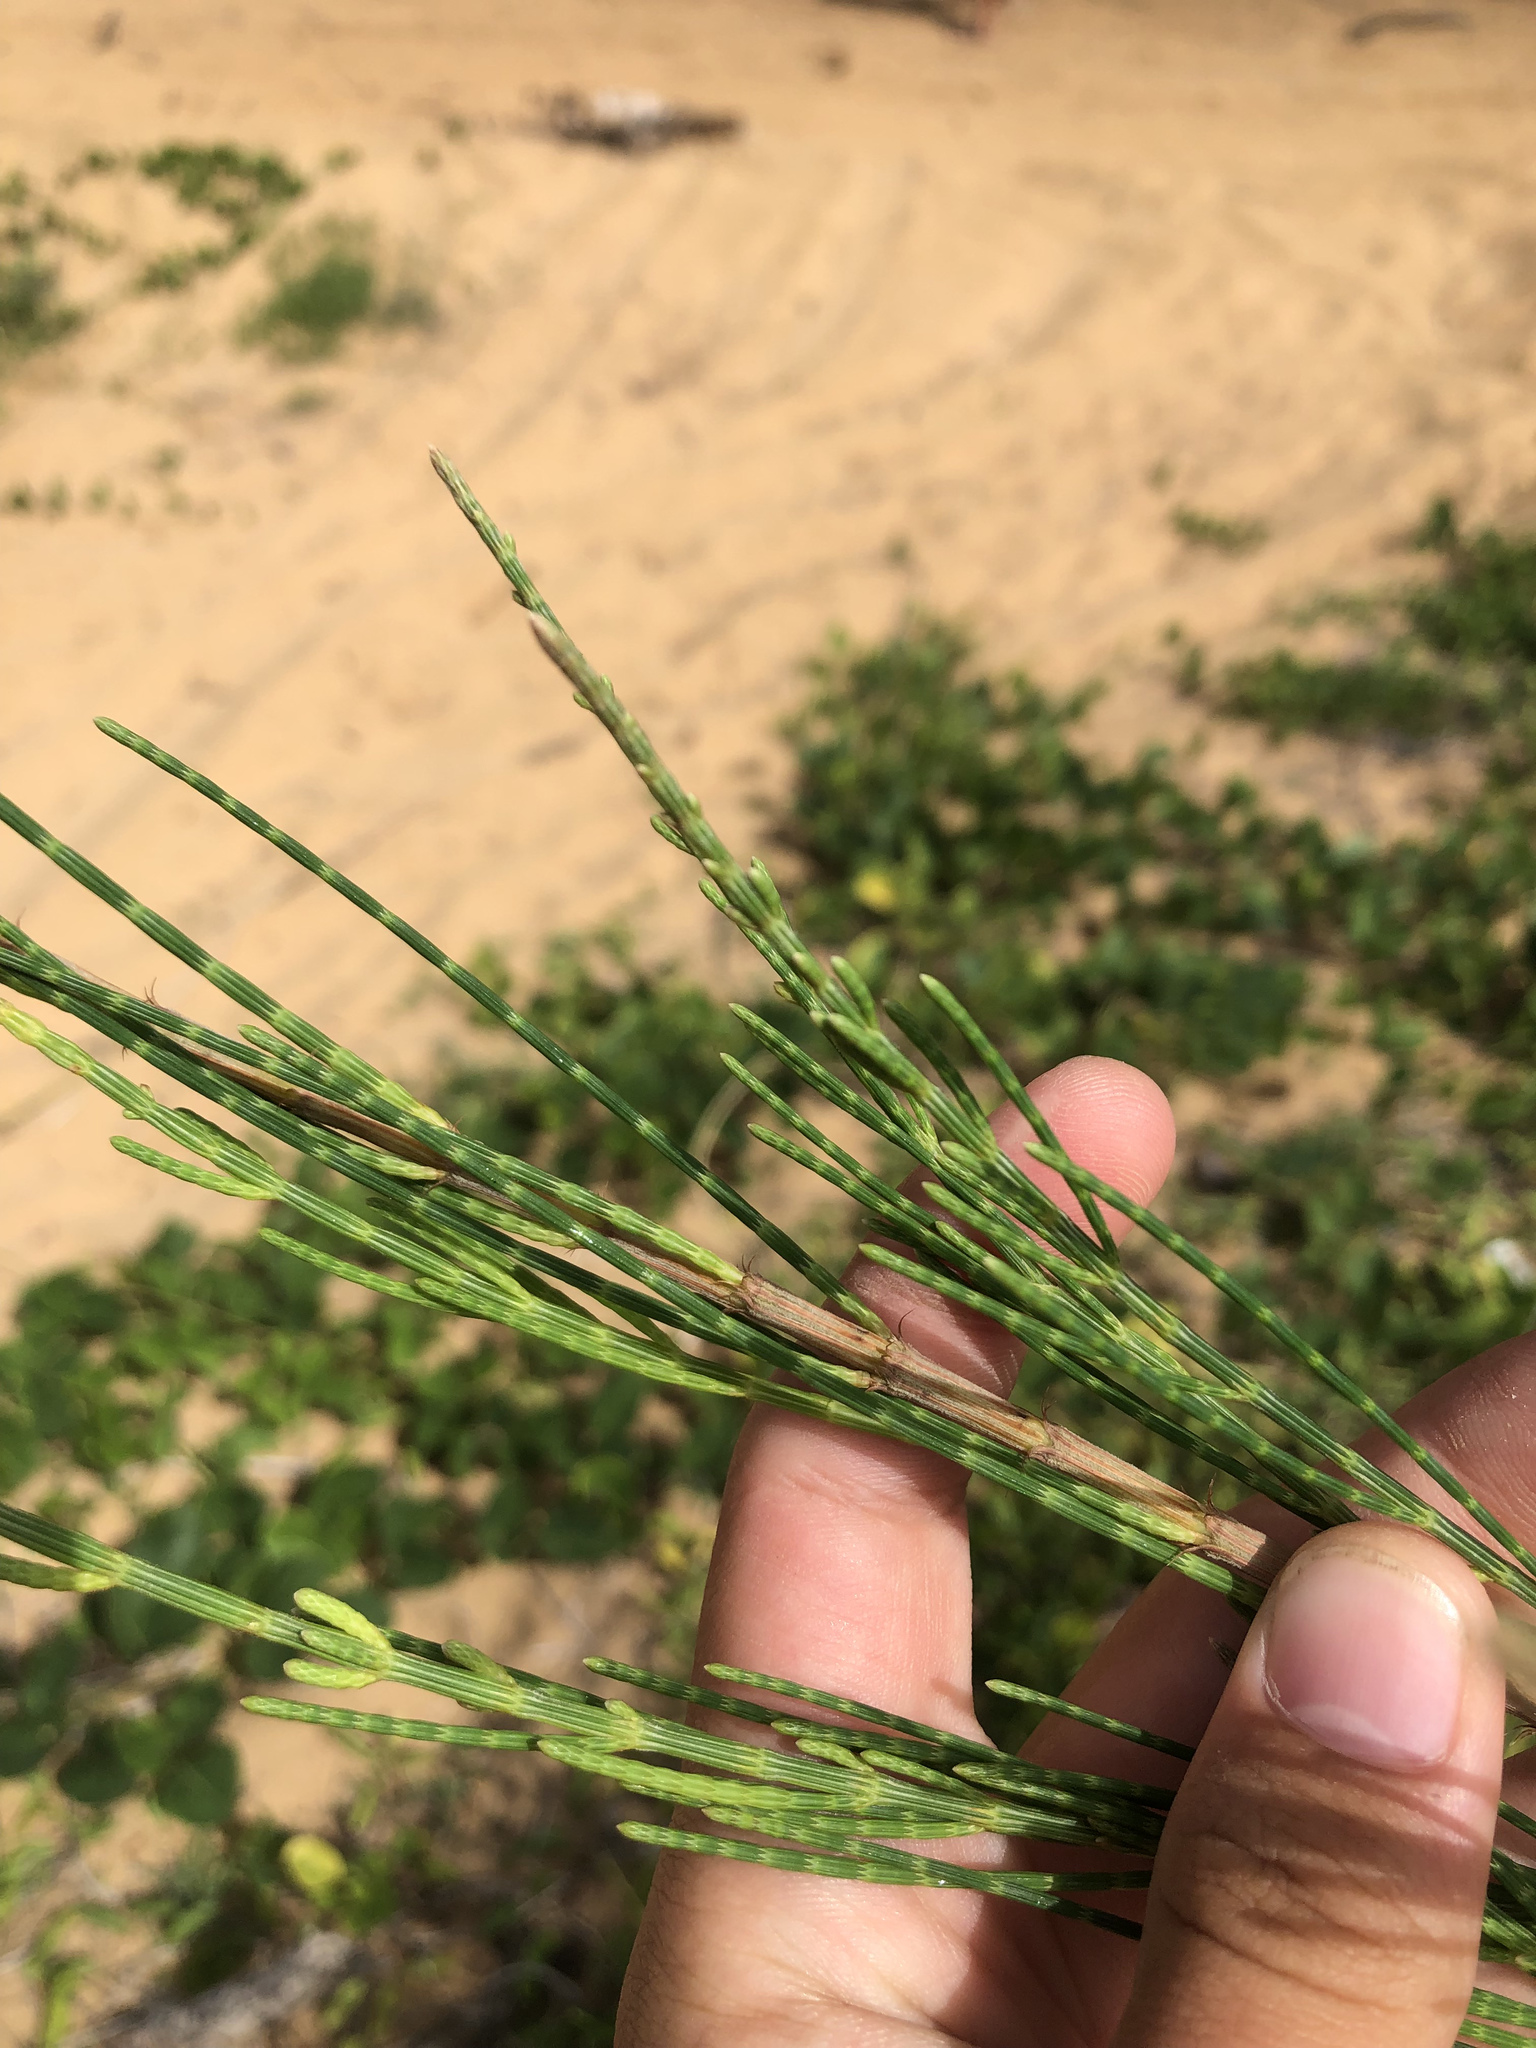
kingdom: Plantae
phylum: Tracheophyta
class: Magnoliopsida
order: Fagales
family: Casuarinaceae
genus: Casuarina
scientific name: Casuarina equisetifolia
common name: Beach sheoak
